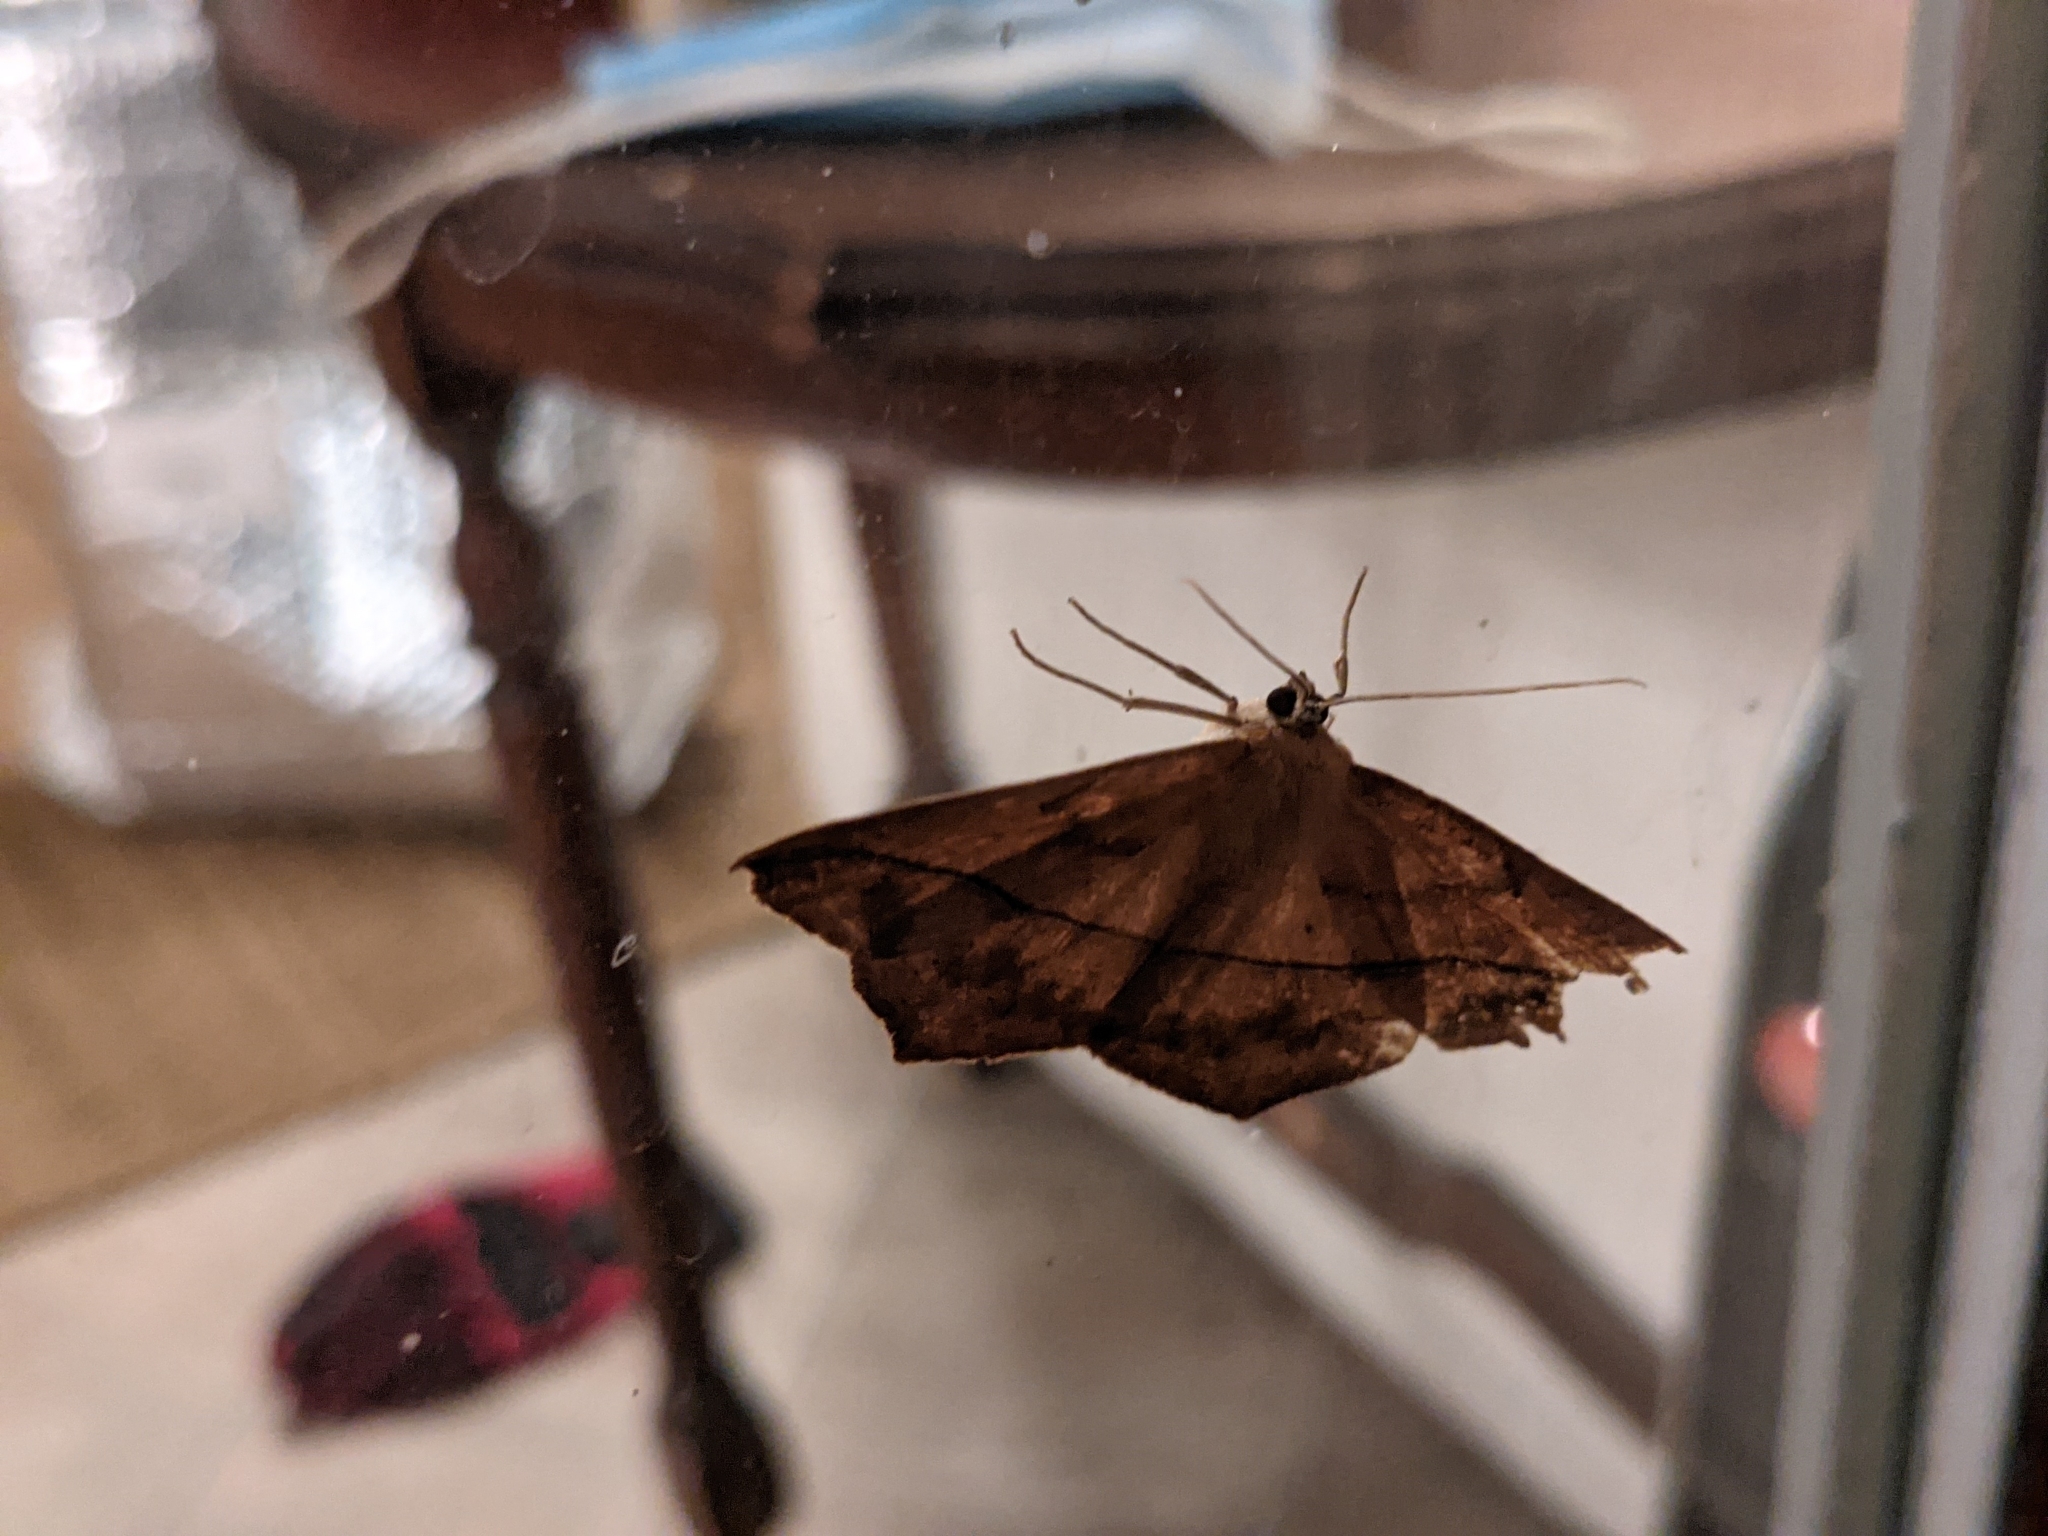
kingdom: Animalia
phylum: Arthropoda
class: Insecta
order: Lepidoptera
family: Geometridae
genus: Prochoerodes
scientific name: Prochoerodes lineola
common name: Large maple spanworm
